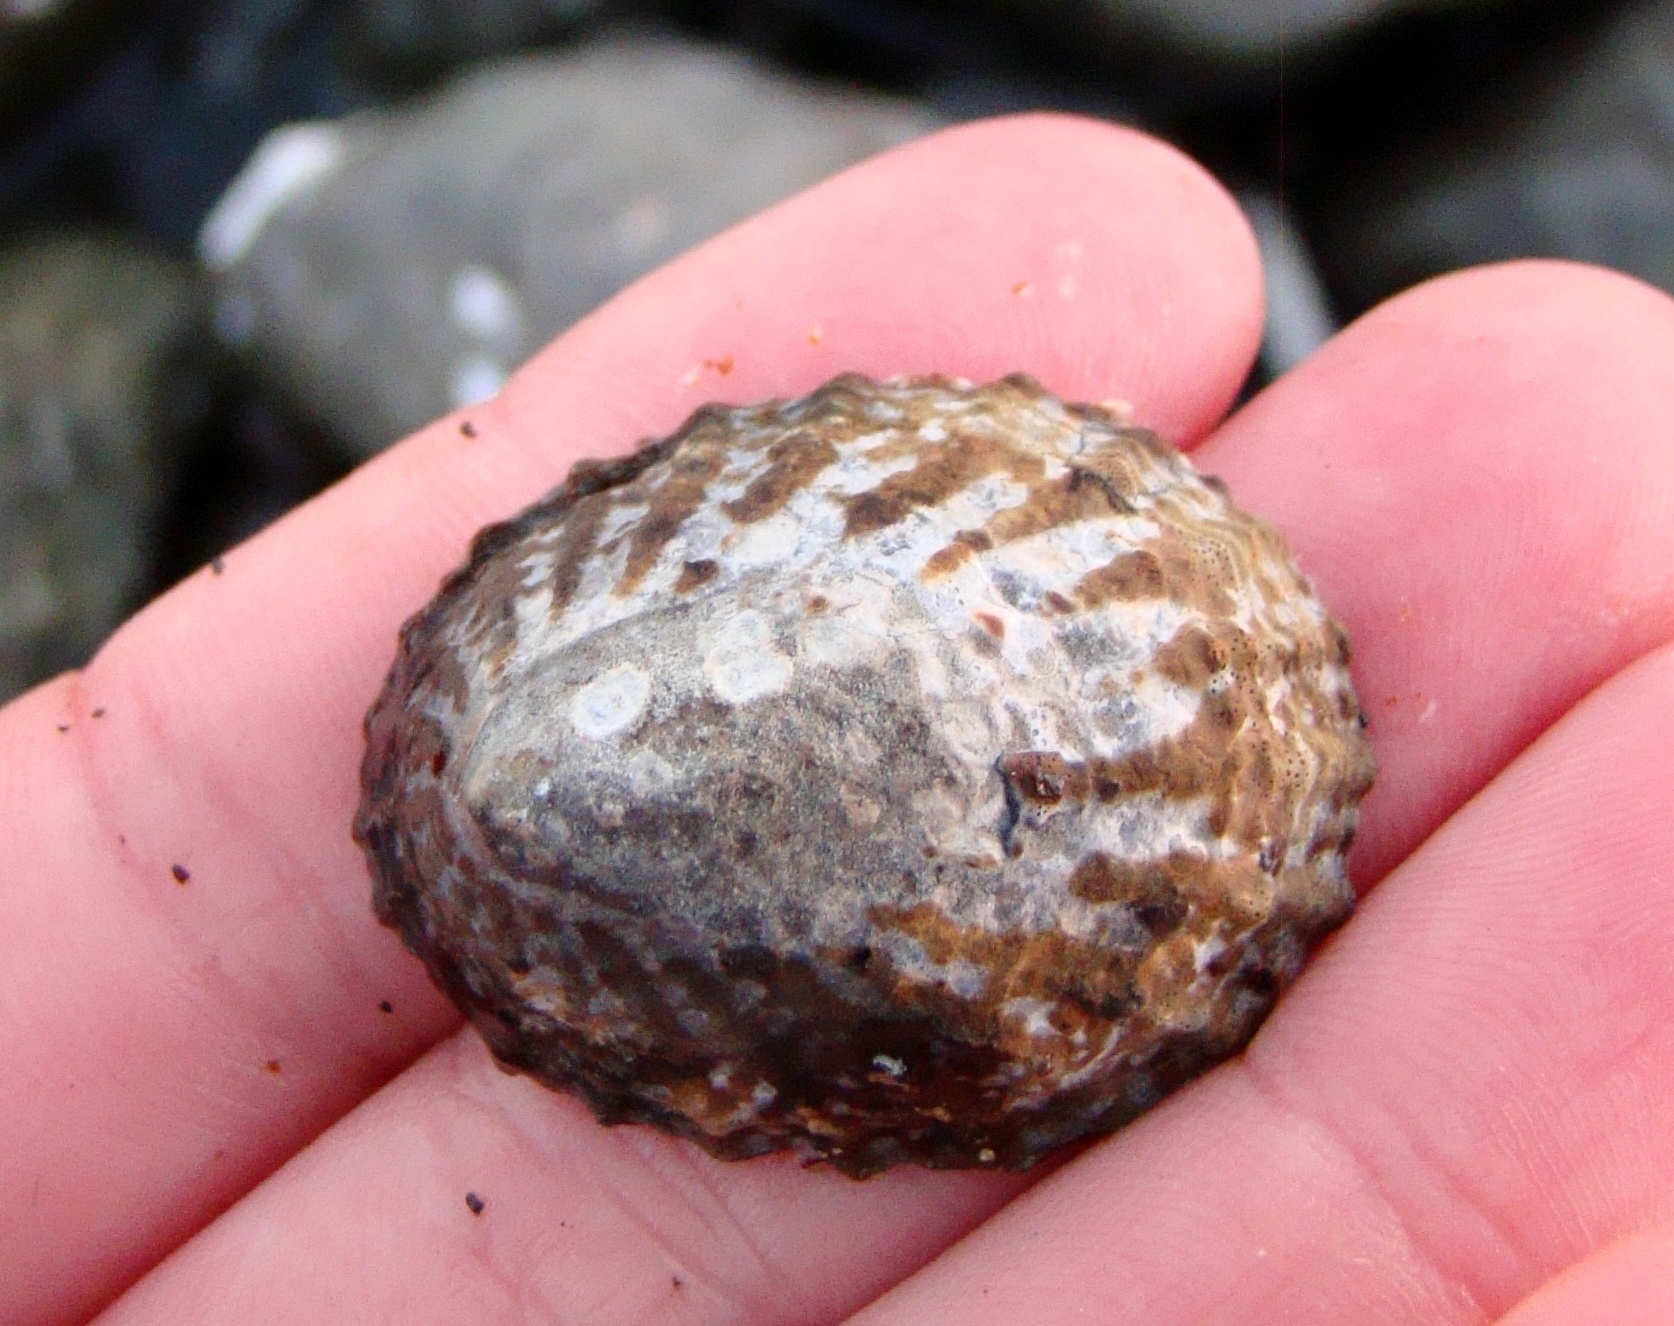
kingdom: Animalia
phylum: Mollusca
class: Gastropoda
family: Nacellidae
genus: Cellana
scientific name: Cellana denticulata
